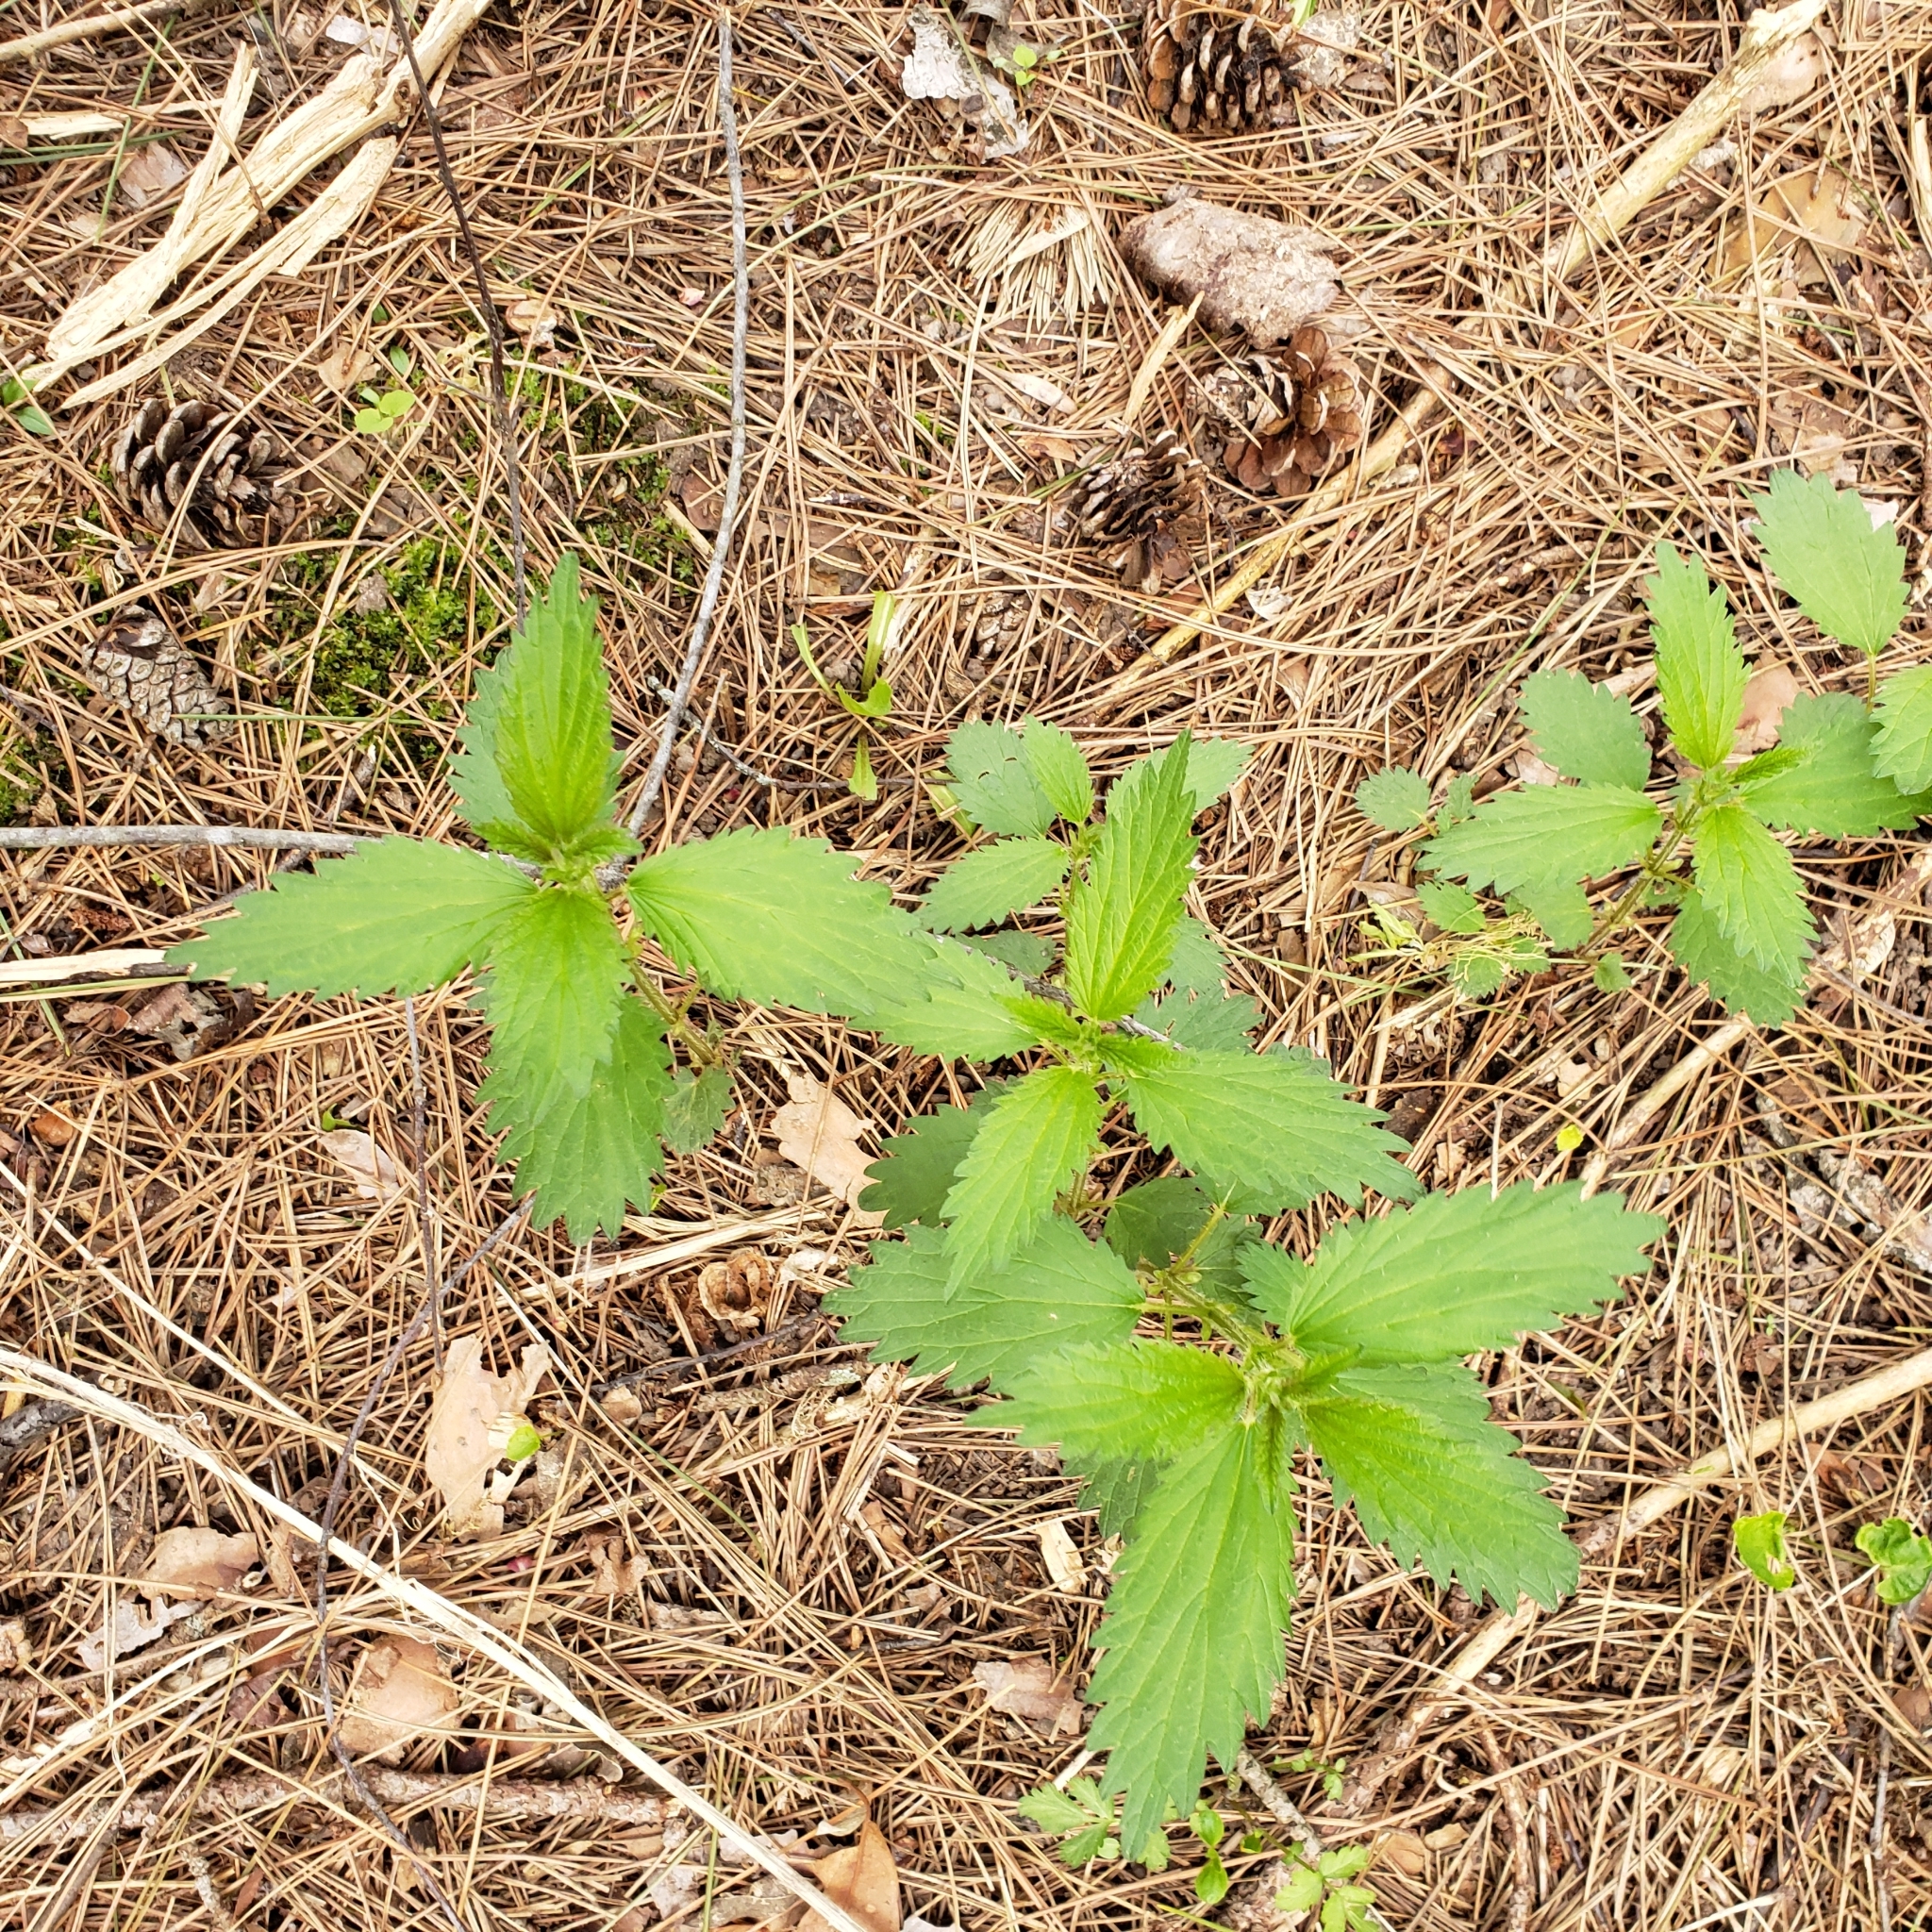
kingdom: Plantae
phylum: Tracheophyta
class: Magnoliopsida
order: Rosales
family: Urticaceae
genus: Urtica
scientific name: Urtica dioica
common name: Common nettle
